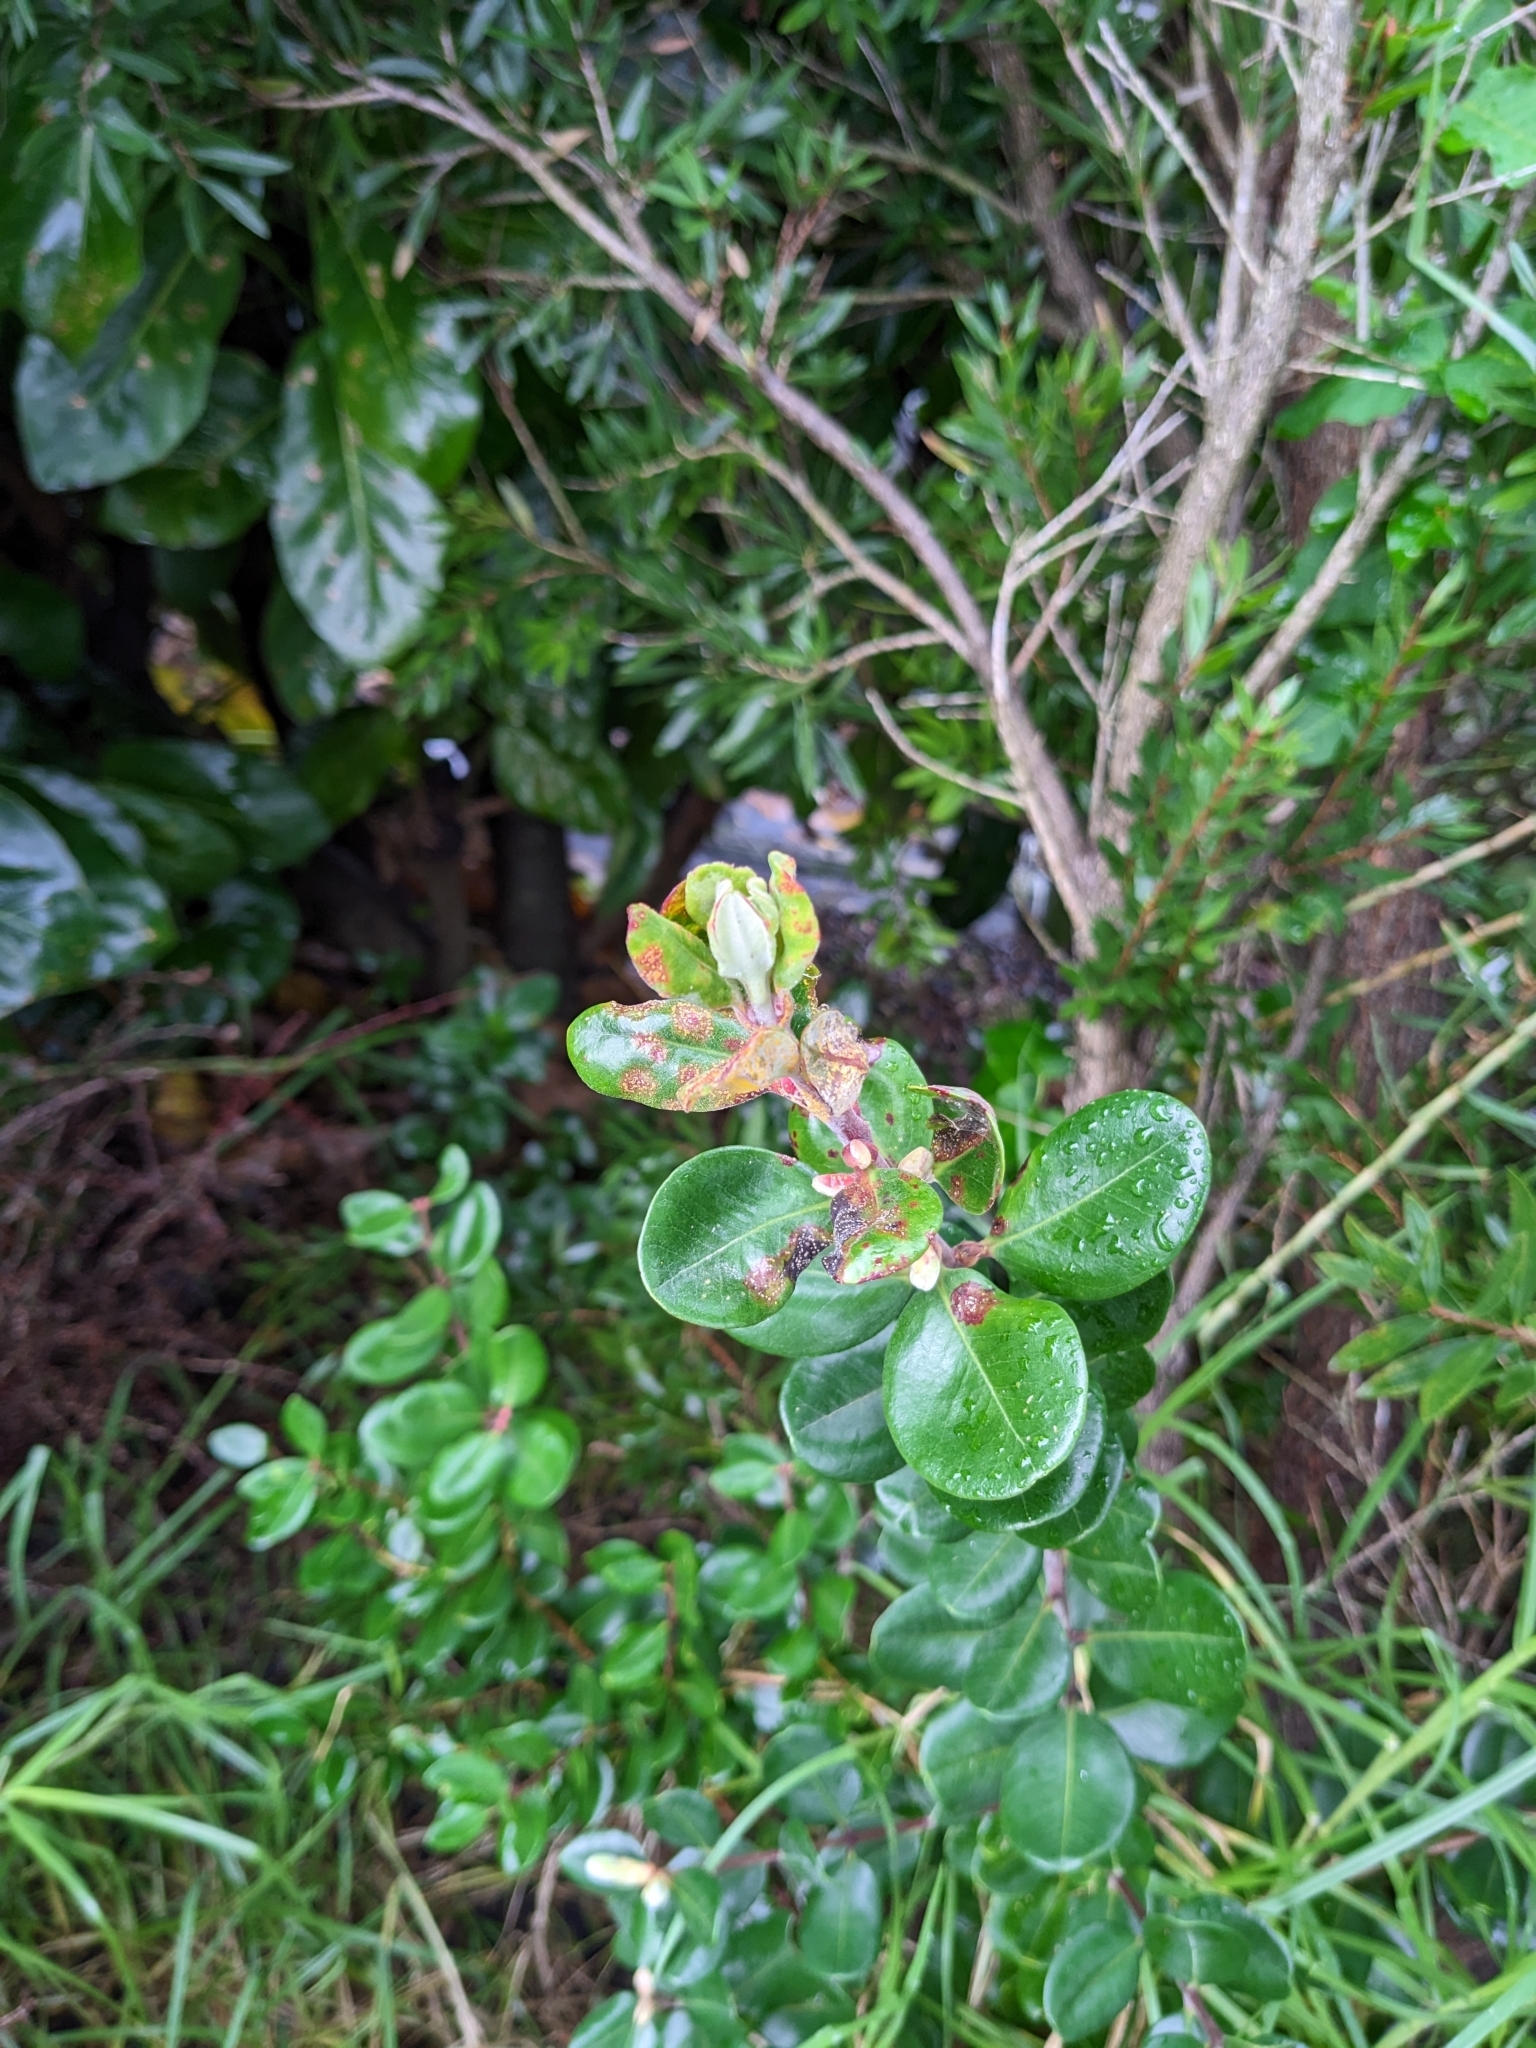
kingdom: Fungi
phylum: Basidiomycota
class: Pucciniomycetes
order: Pucciniales
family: Sphaerophragmiaceae
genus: Austropuccinia
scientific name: Austropuccinia psidii
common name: Myrtle rust
